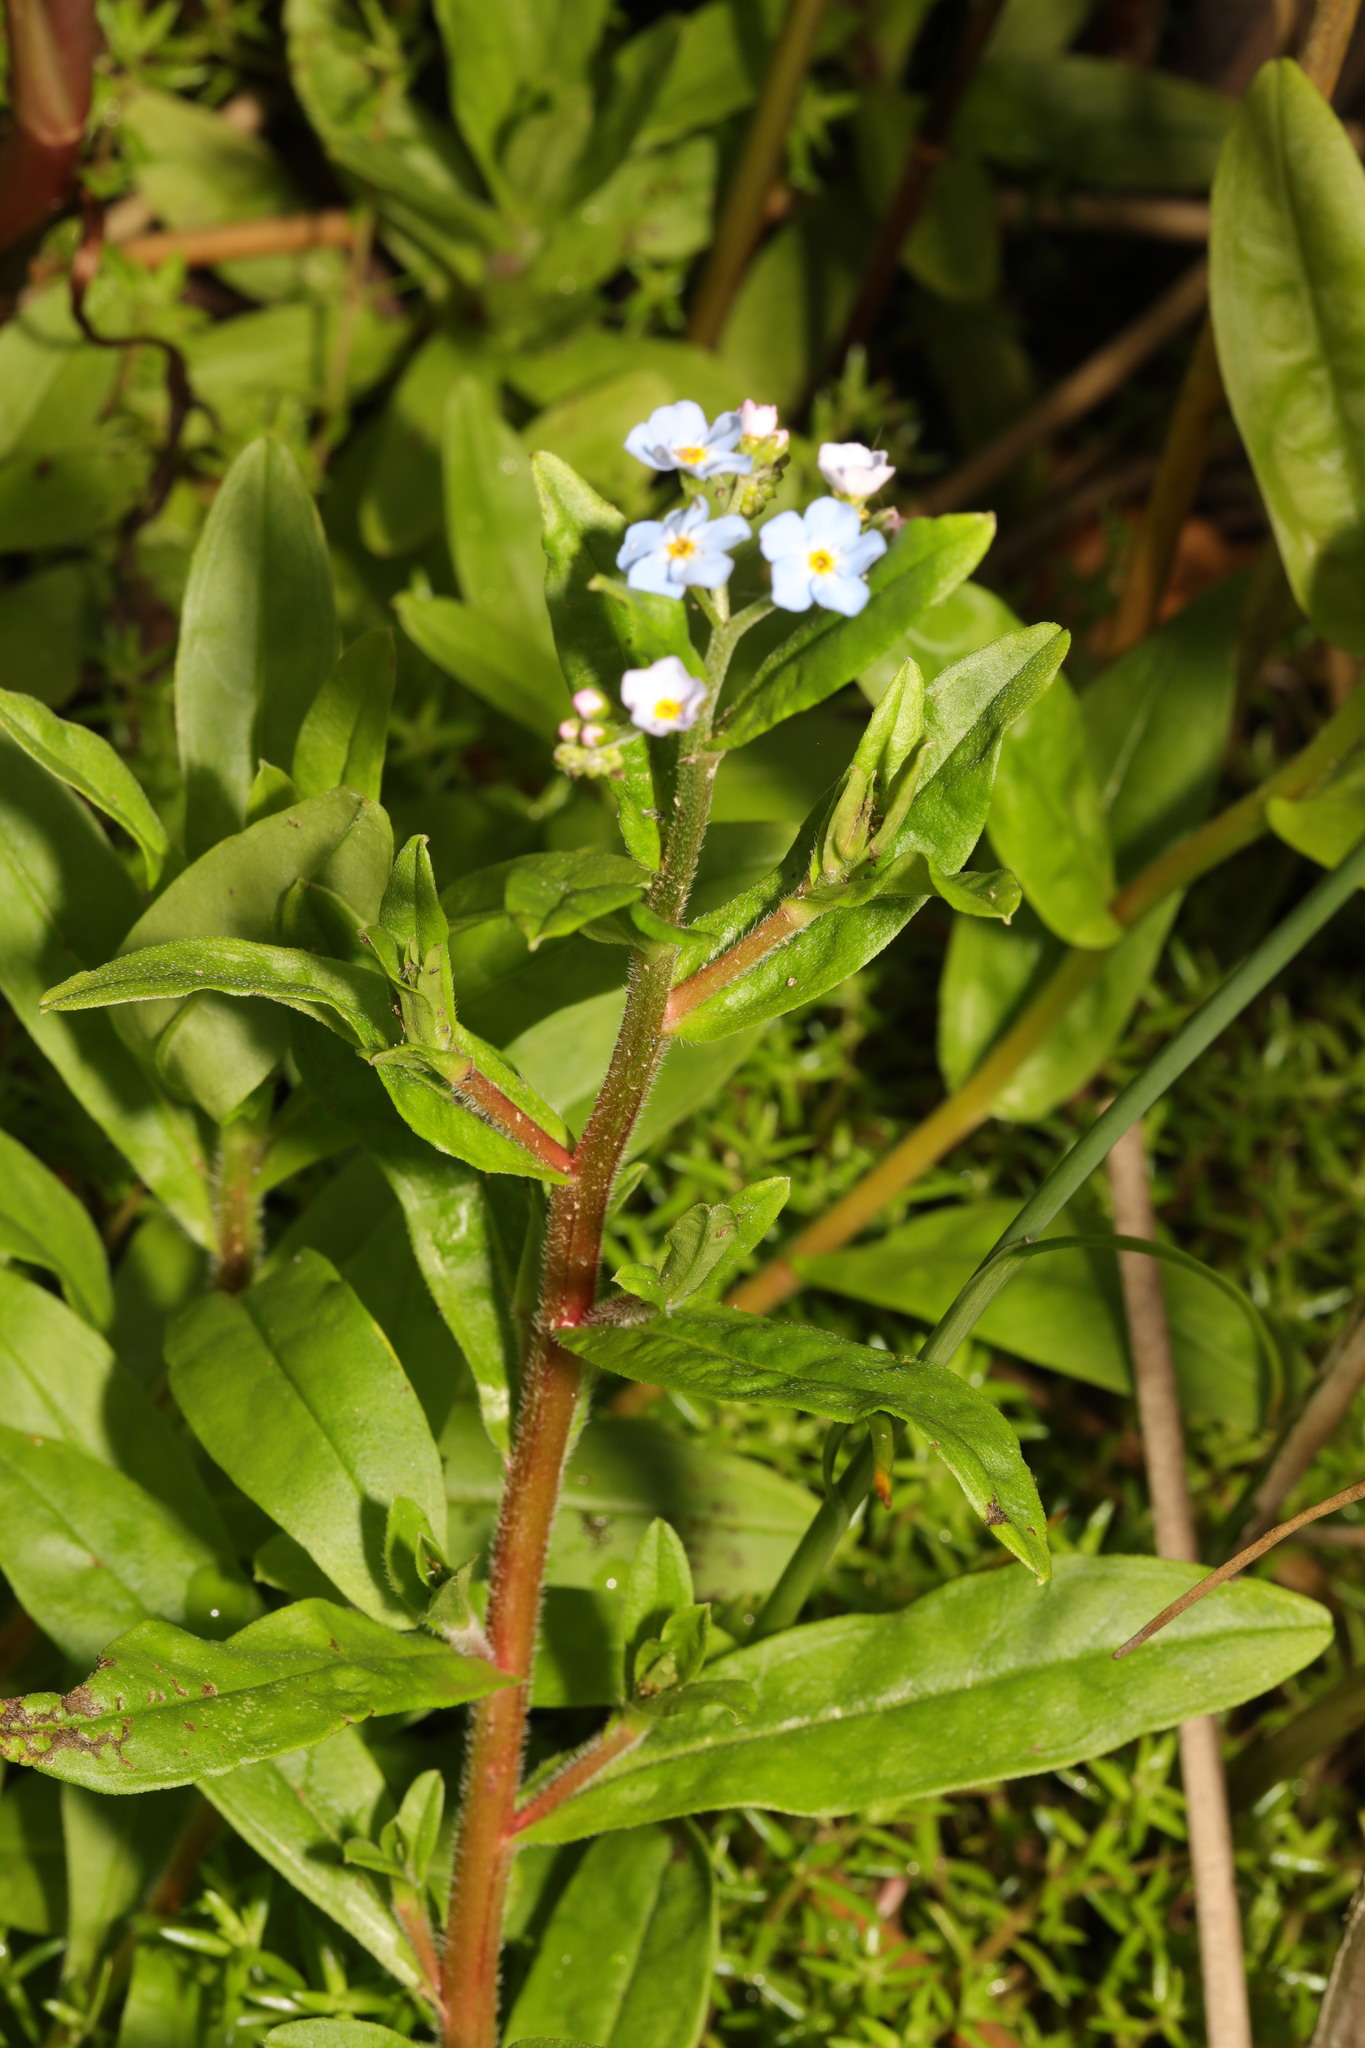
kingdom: Plantae
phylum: Tracheophyta
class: Magnoliopsida
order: Boraginales
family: Boraginaceae
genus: Myosotis
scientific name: Myosotis scorpioides
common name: Water forget-me-not
